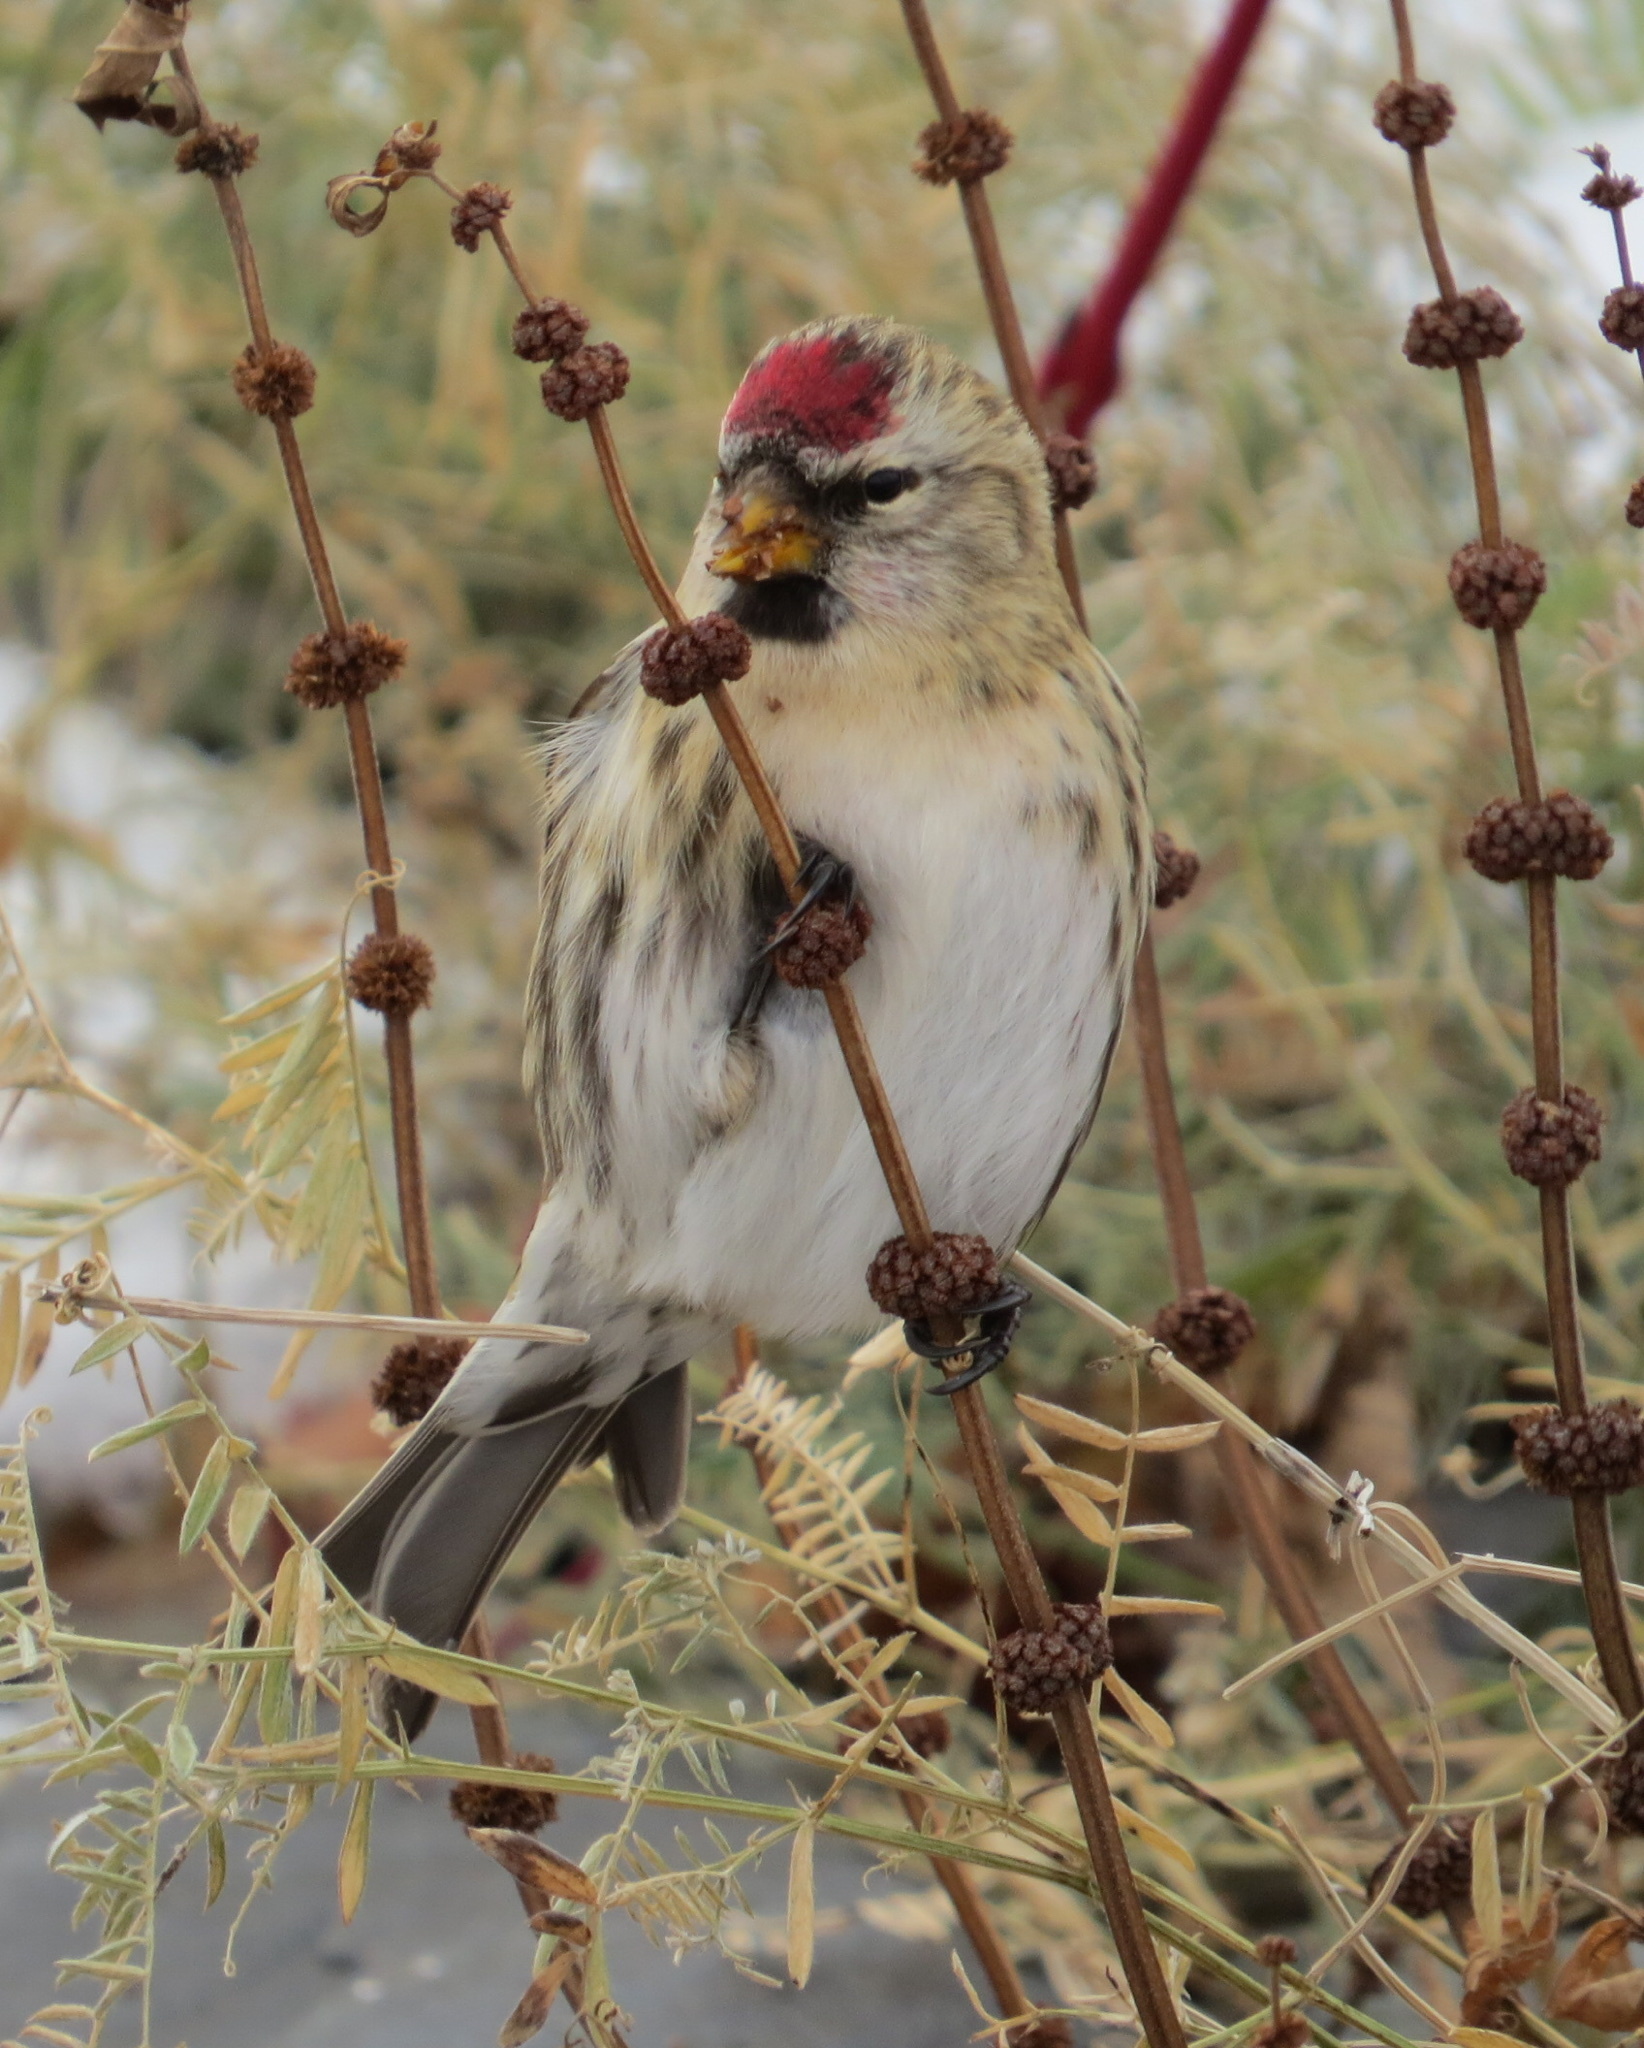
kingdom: Animalia
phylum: Chordata
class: Aves
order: Passeriformes
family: Fringillidae
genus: Acanthis
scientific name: Acanthis flammea
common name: Common redpoll
